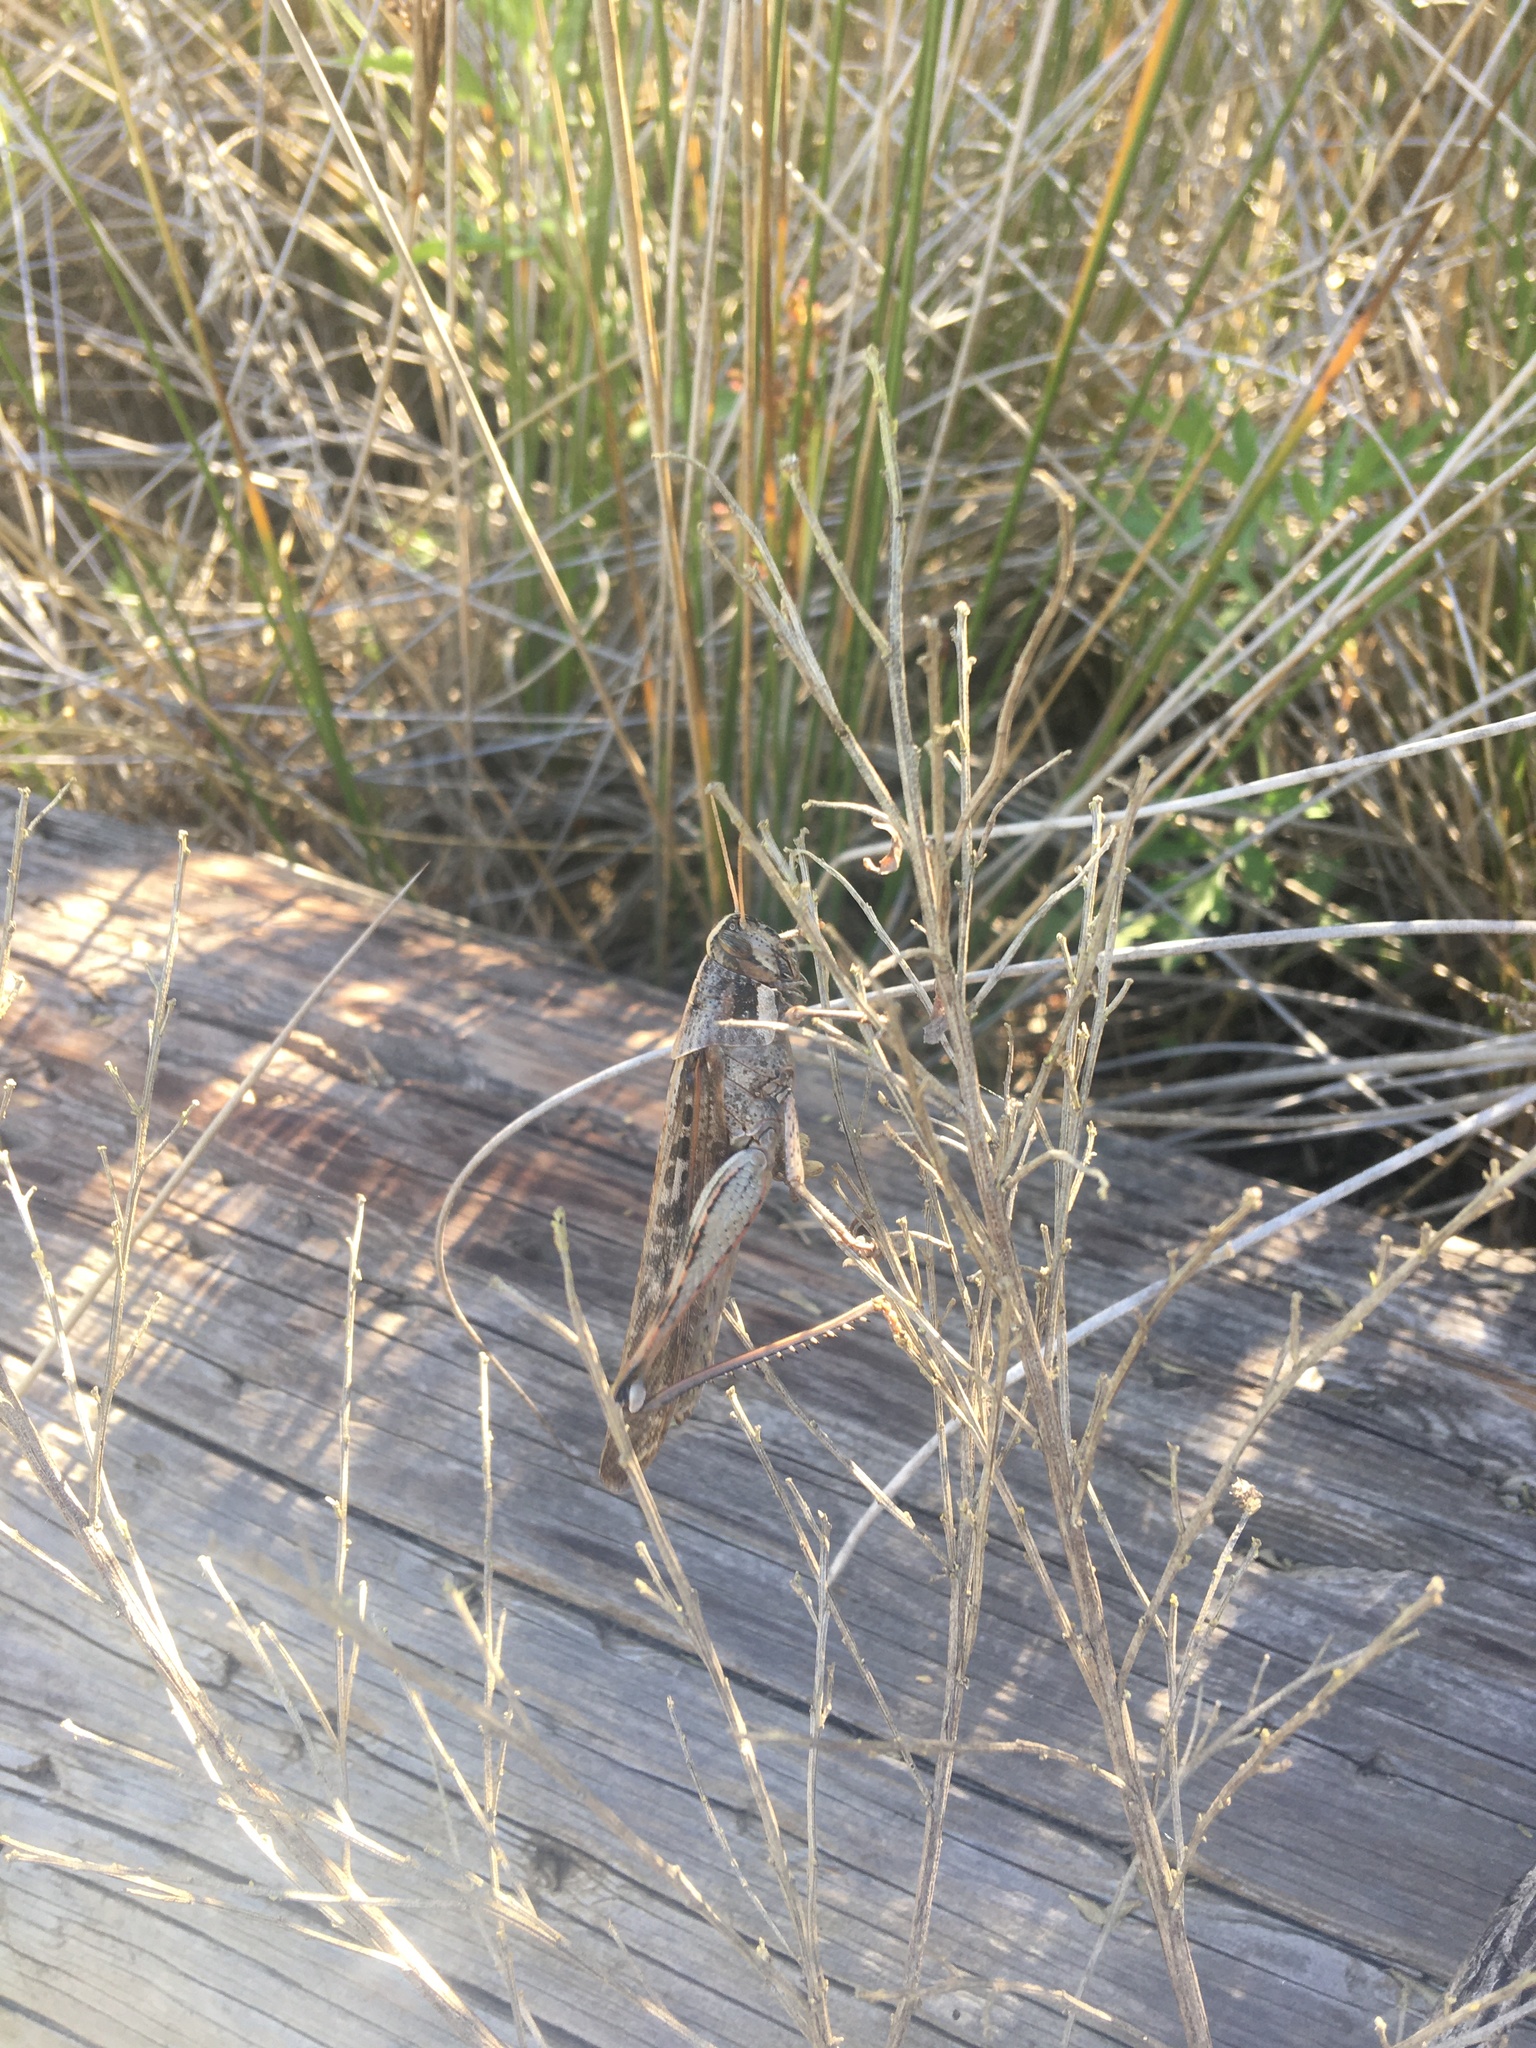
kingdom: Animalia
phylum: Arthropoda
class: Insecta
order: Orthoptera
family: Acrididae
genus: Schistocerca
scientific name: Schistocerca nitens
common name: Vagrant grasshopper
